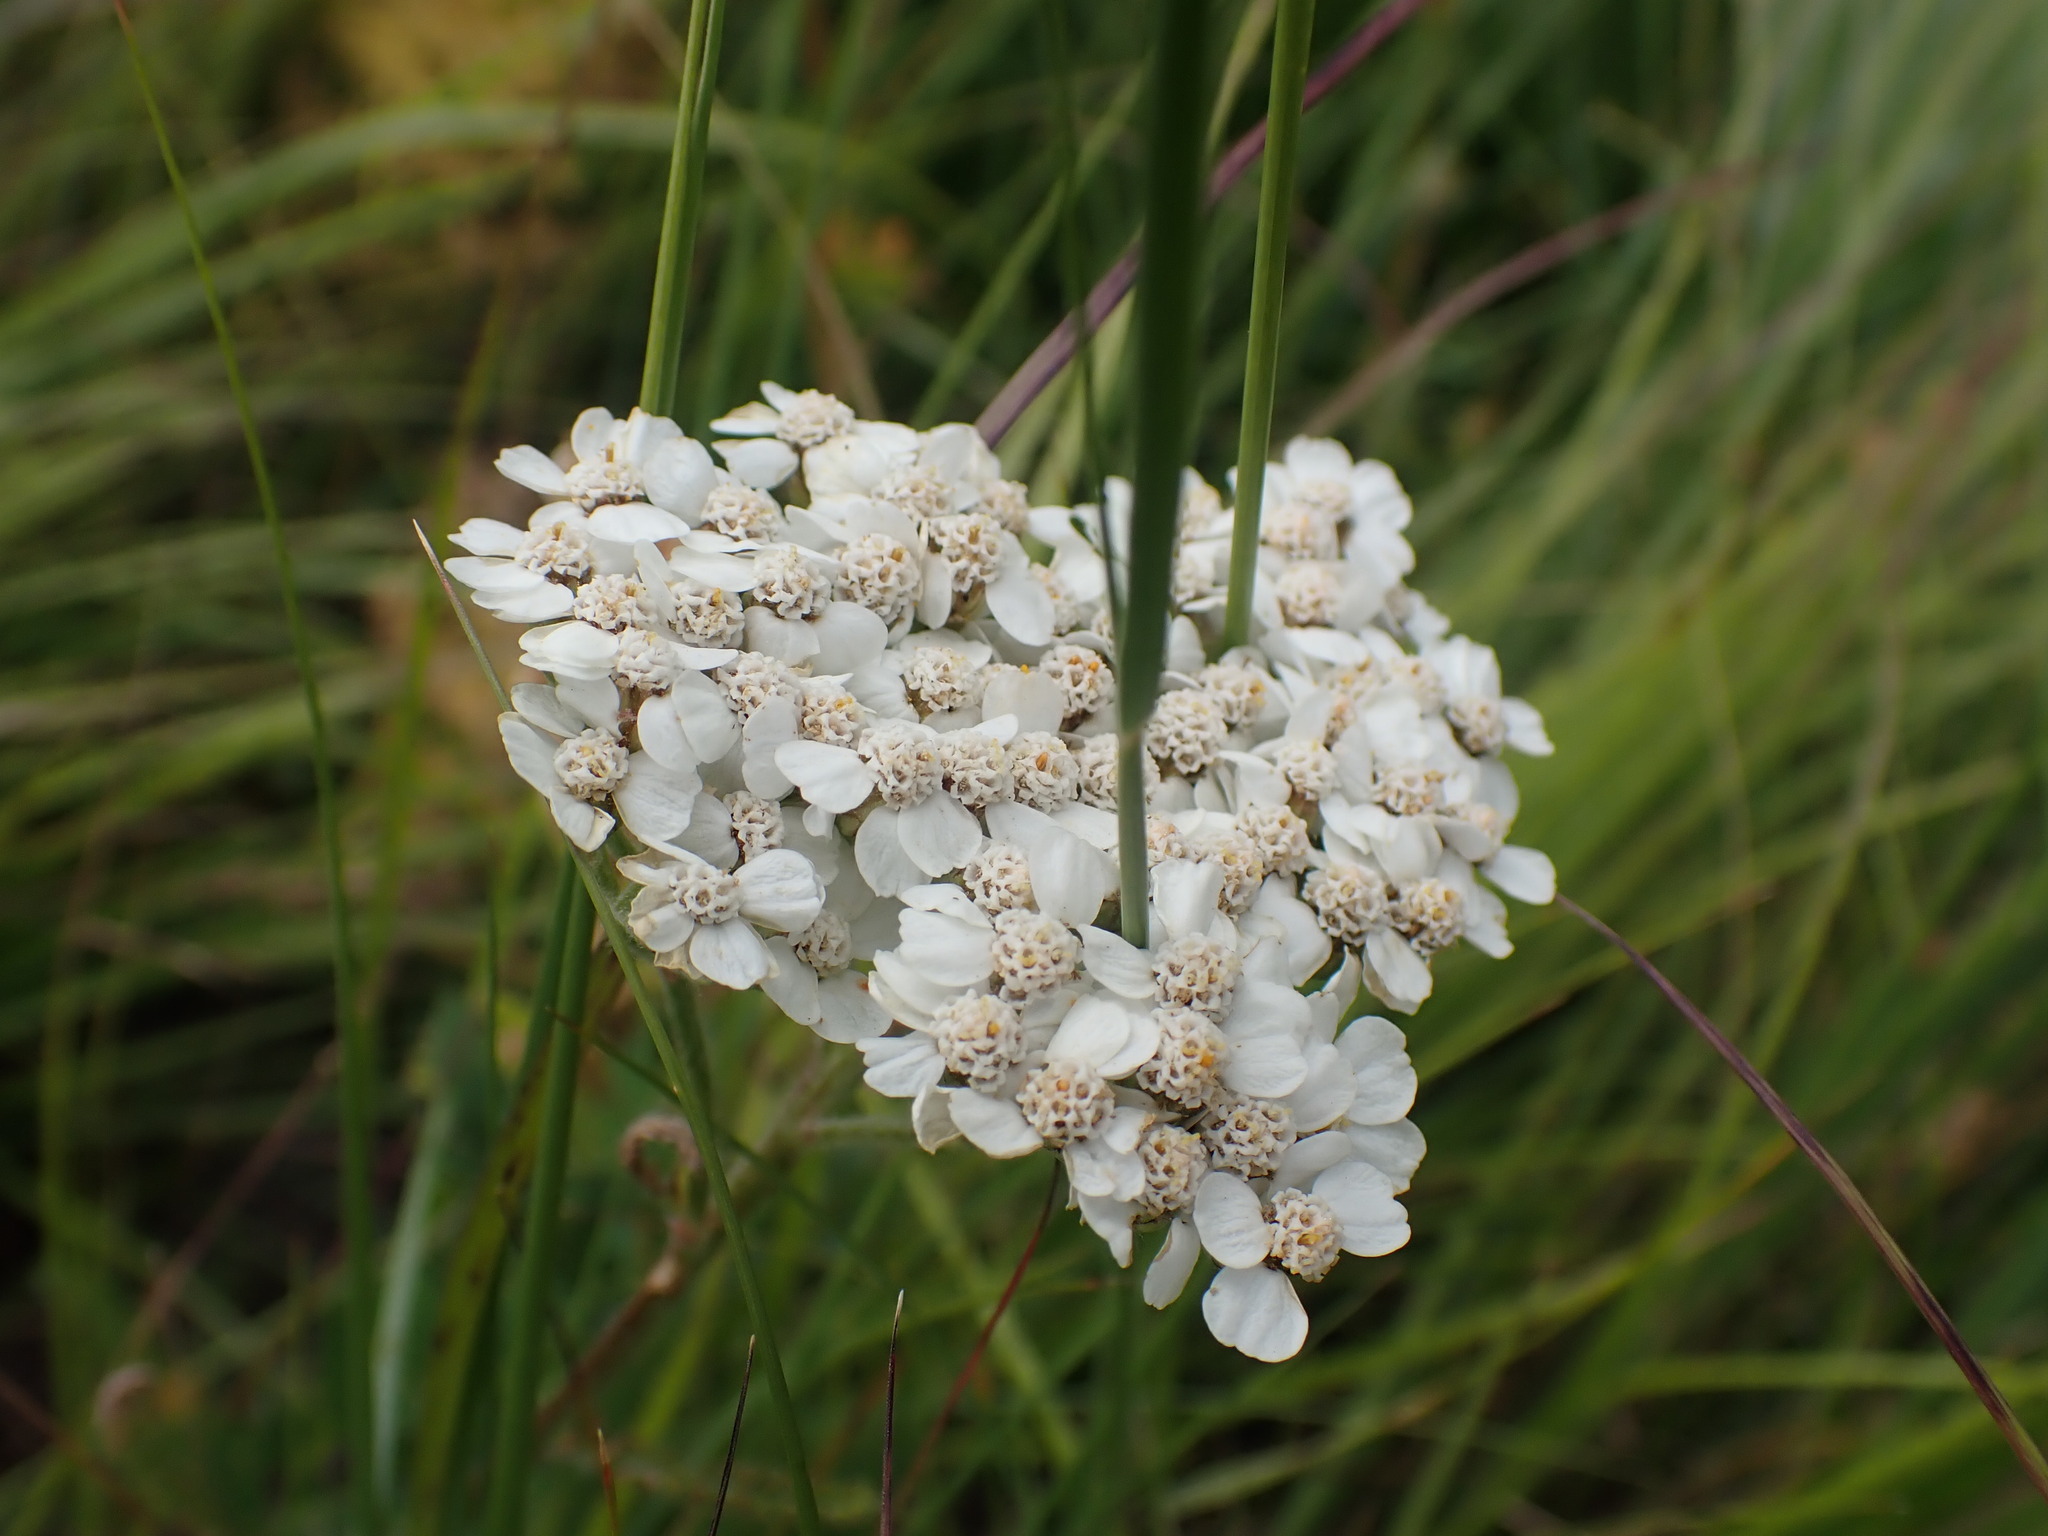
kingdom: Plantae
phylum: Tracheophyta
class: Magnoliopsida
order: Asterales
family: Asteraceae
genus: Achillea
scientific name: Achillea millefolium
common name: Yarrow
